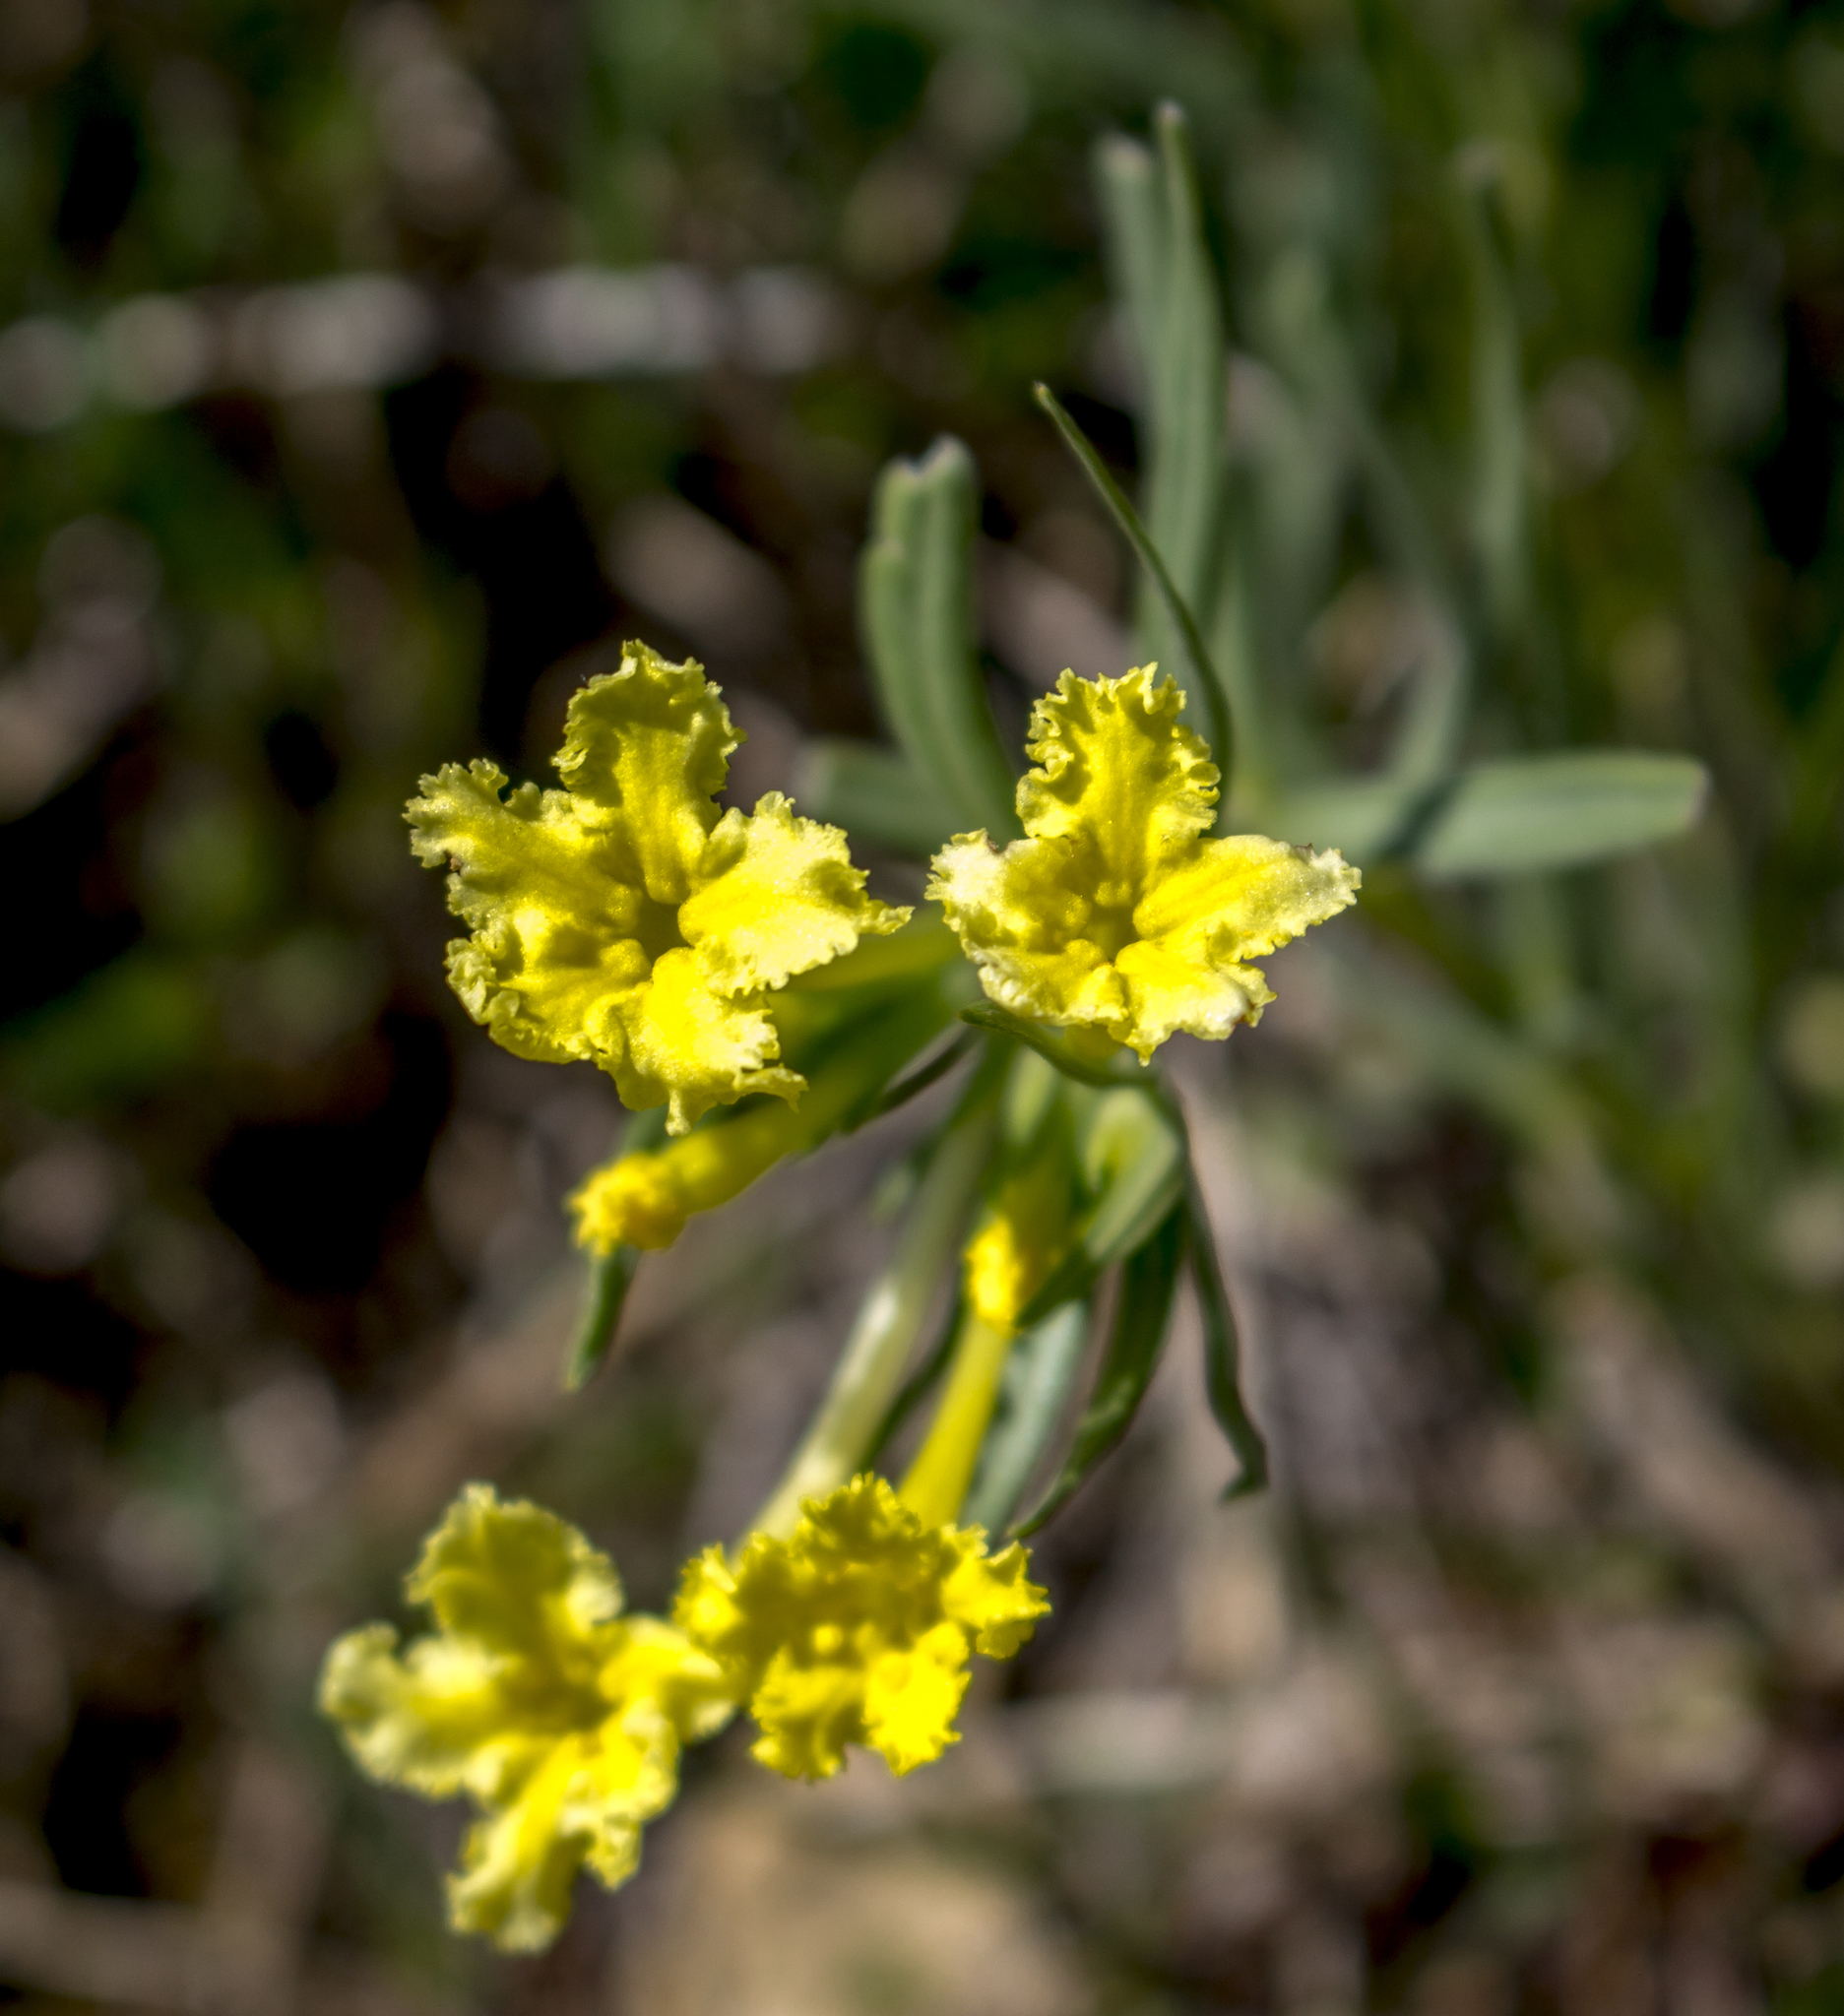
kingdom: Plantae
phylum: Tracheophyta
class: Magnoliopsida
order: Boraginales
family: Boraginaceae
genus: Lithospermum
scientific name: Lithospermum incisum
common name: Fringed gromwell
